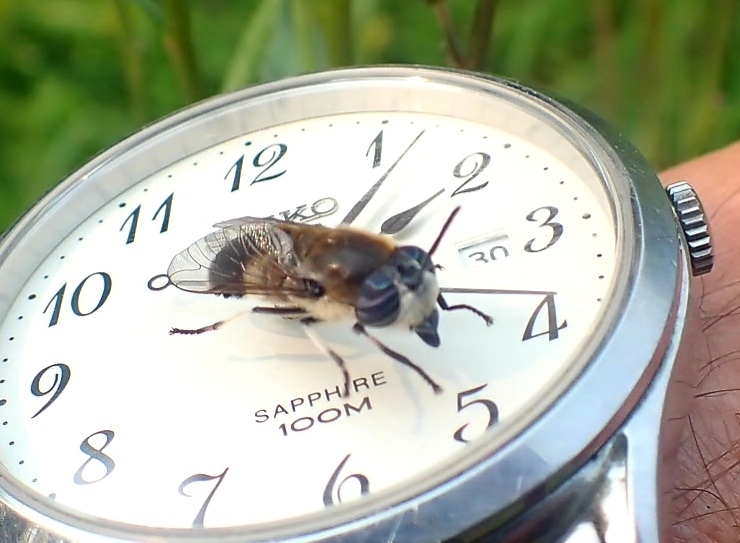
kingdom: Animalia
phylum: Arthropoda
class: Insecta
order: Diptera
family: Tabanidae
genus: Heptatoma
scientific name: Heptatoma pellucens
